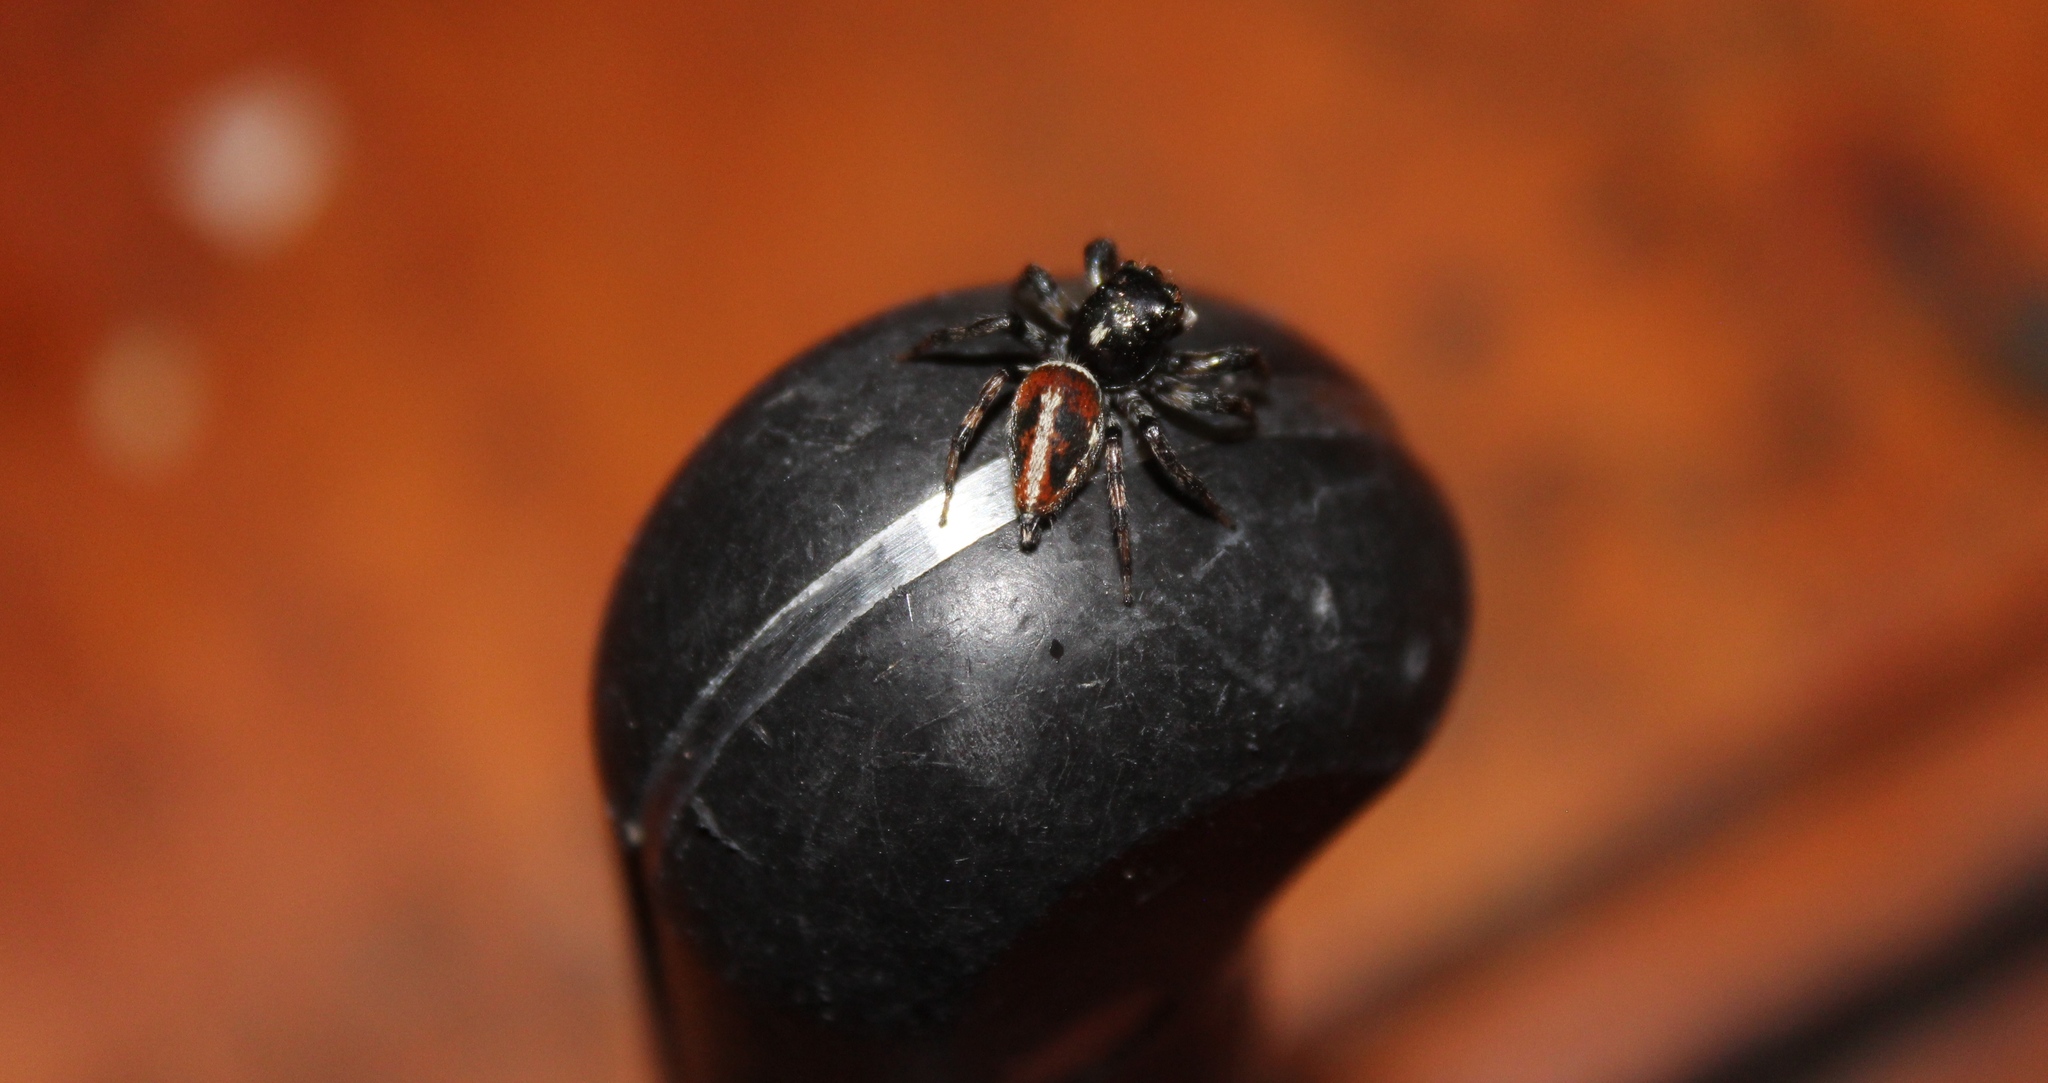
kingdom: Animalia
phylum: Arthropoda
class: Arachnida
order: Araneae
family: Salticidae
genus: Frigga
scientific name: Frigga pratensis
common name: Jumping spiders
